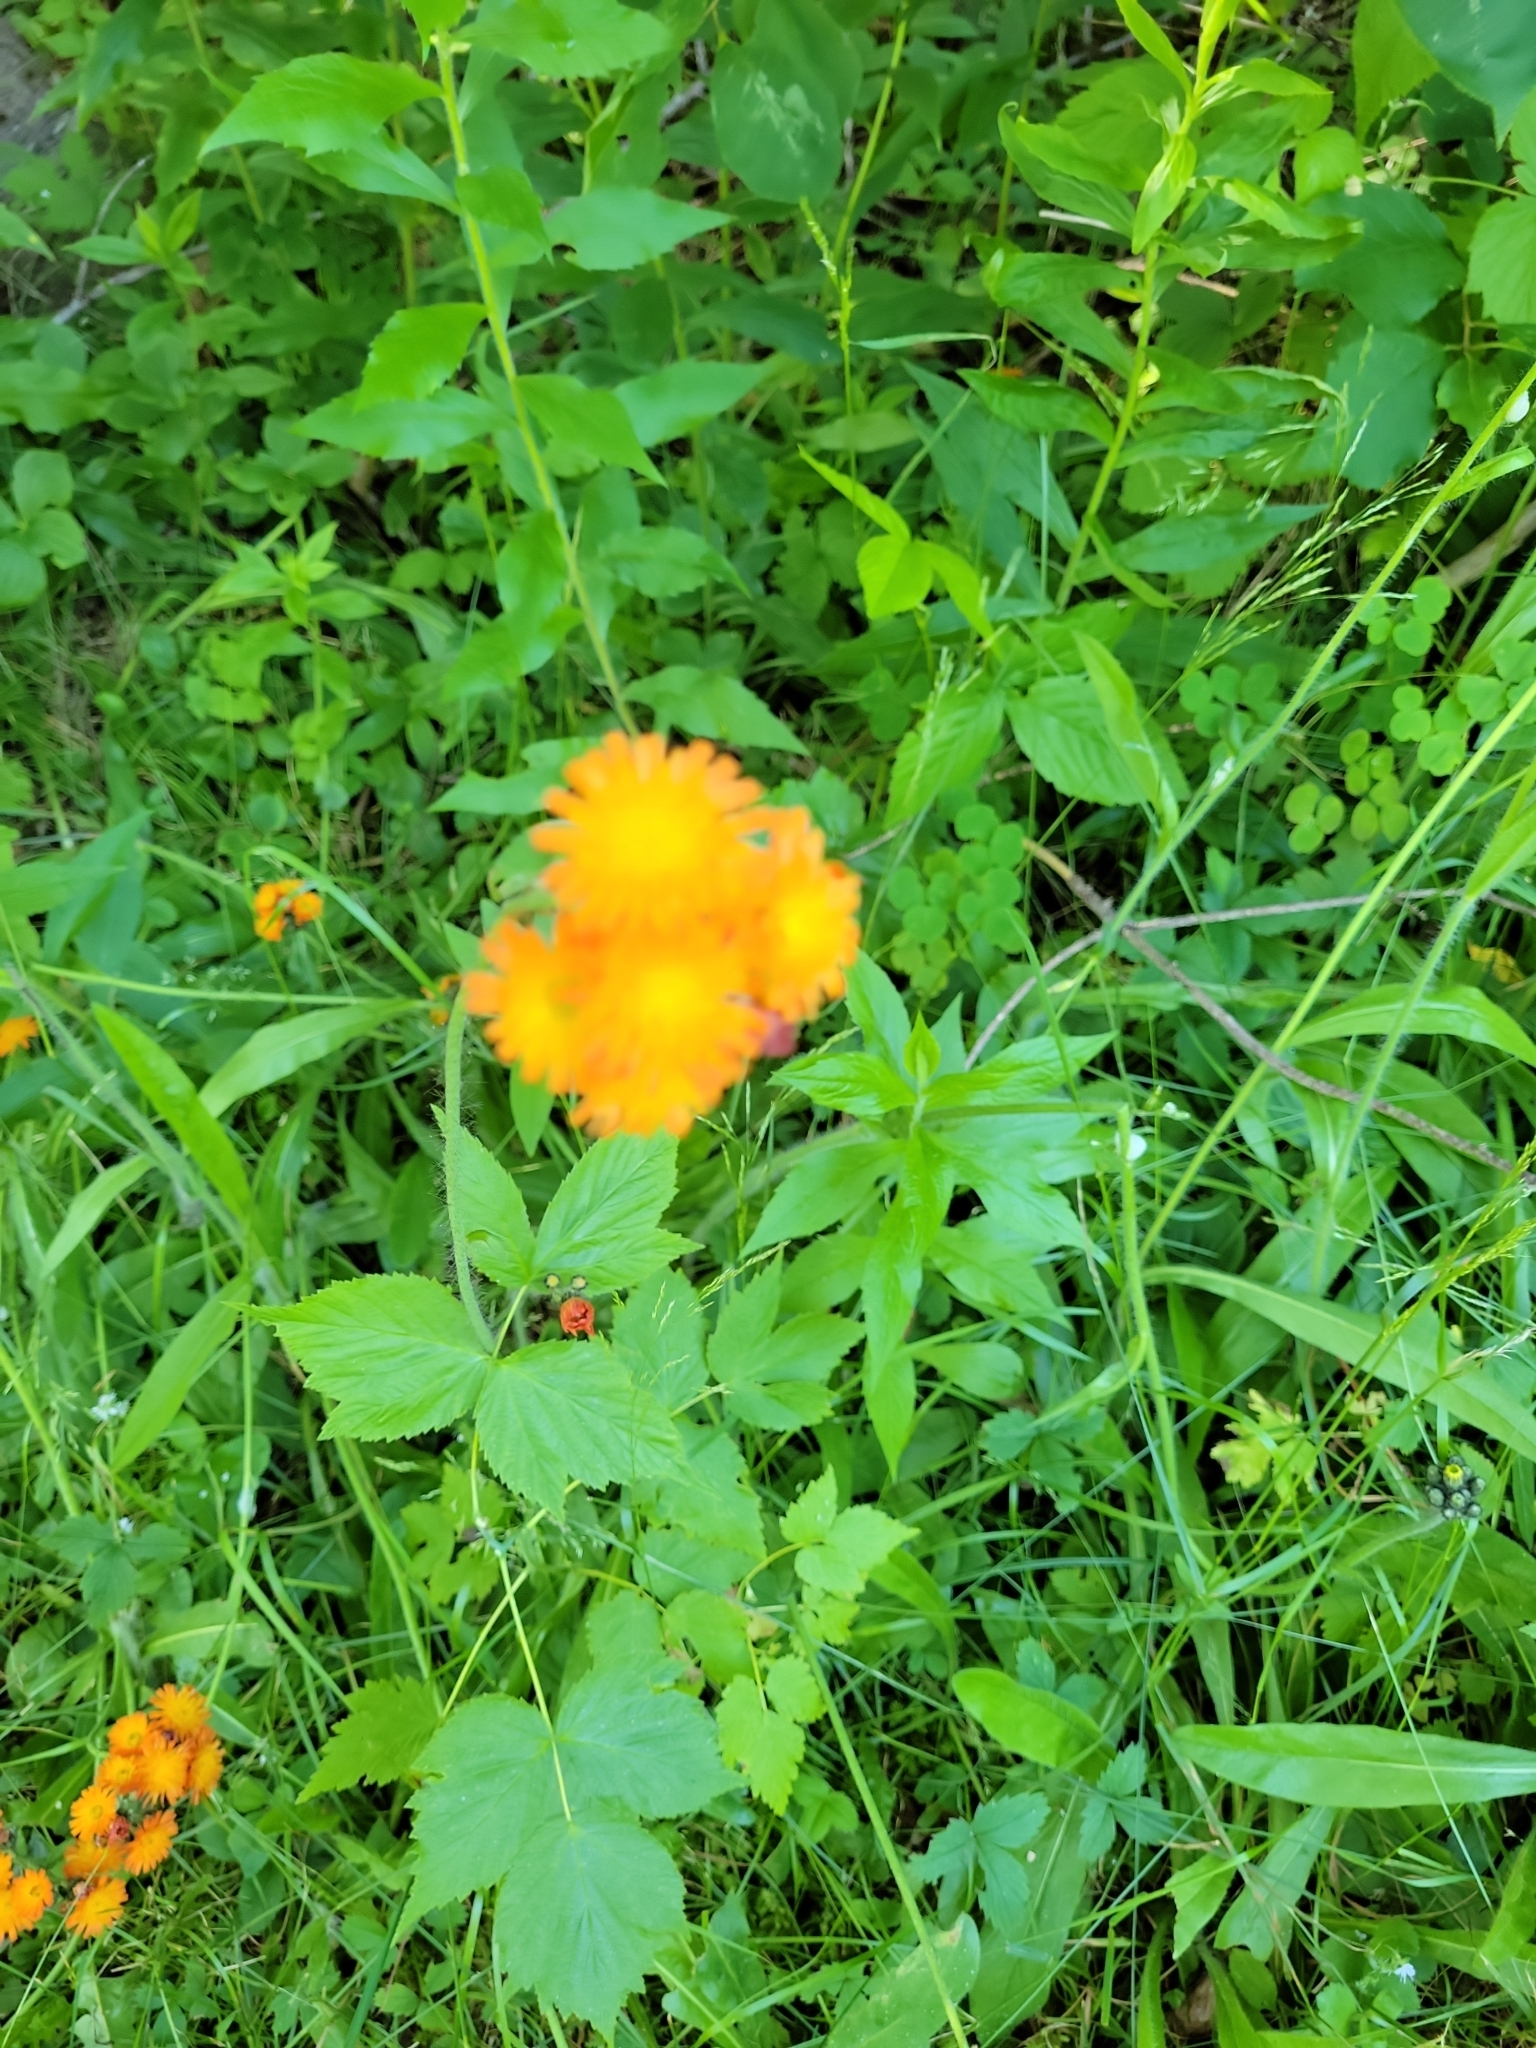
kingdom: Plantae
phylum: Tracheophyta
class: Magnoliopsida
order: Asterales
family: Asteraceae
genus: Pilosella
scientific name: Pilosella aurantiaca
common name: Fox-and-cubs
